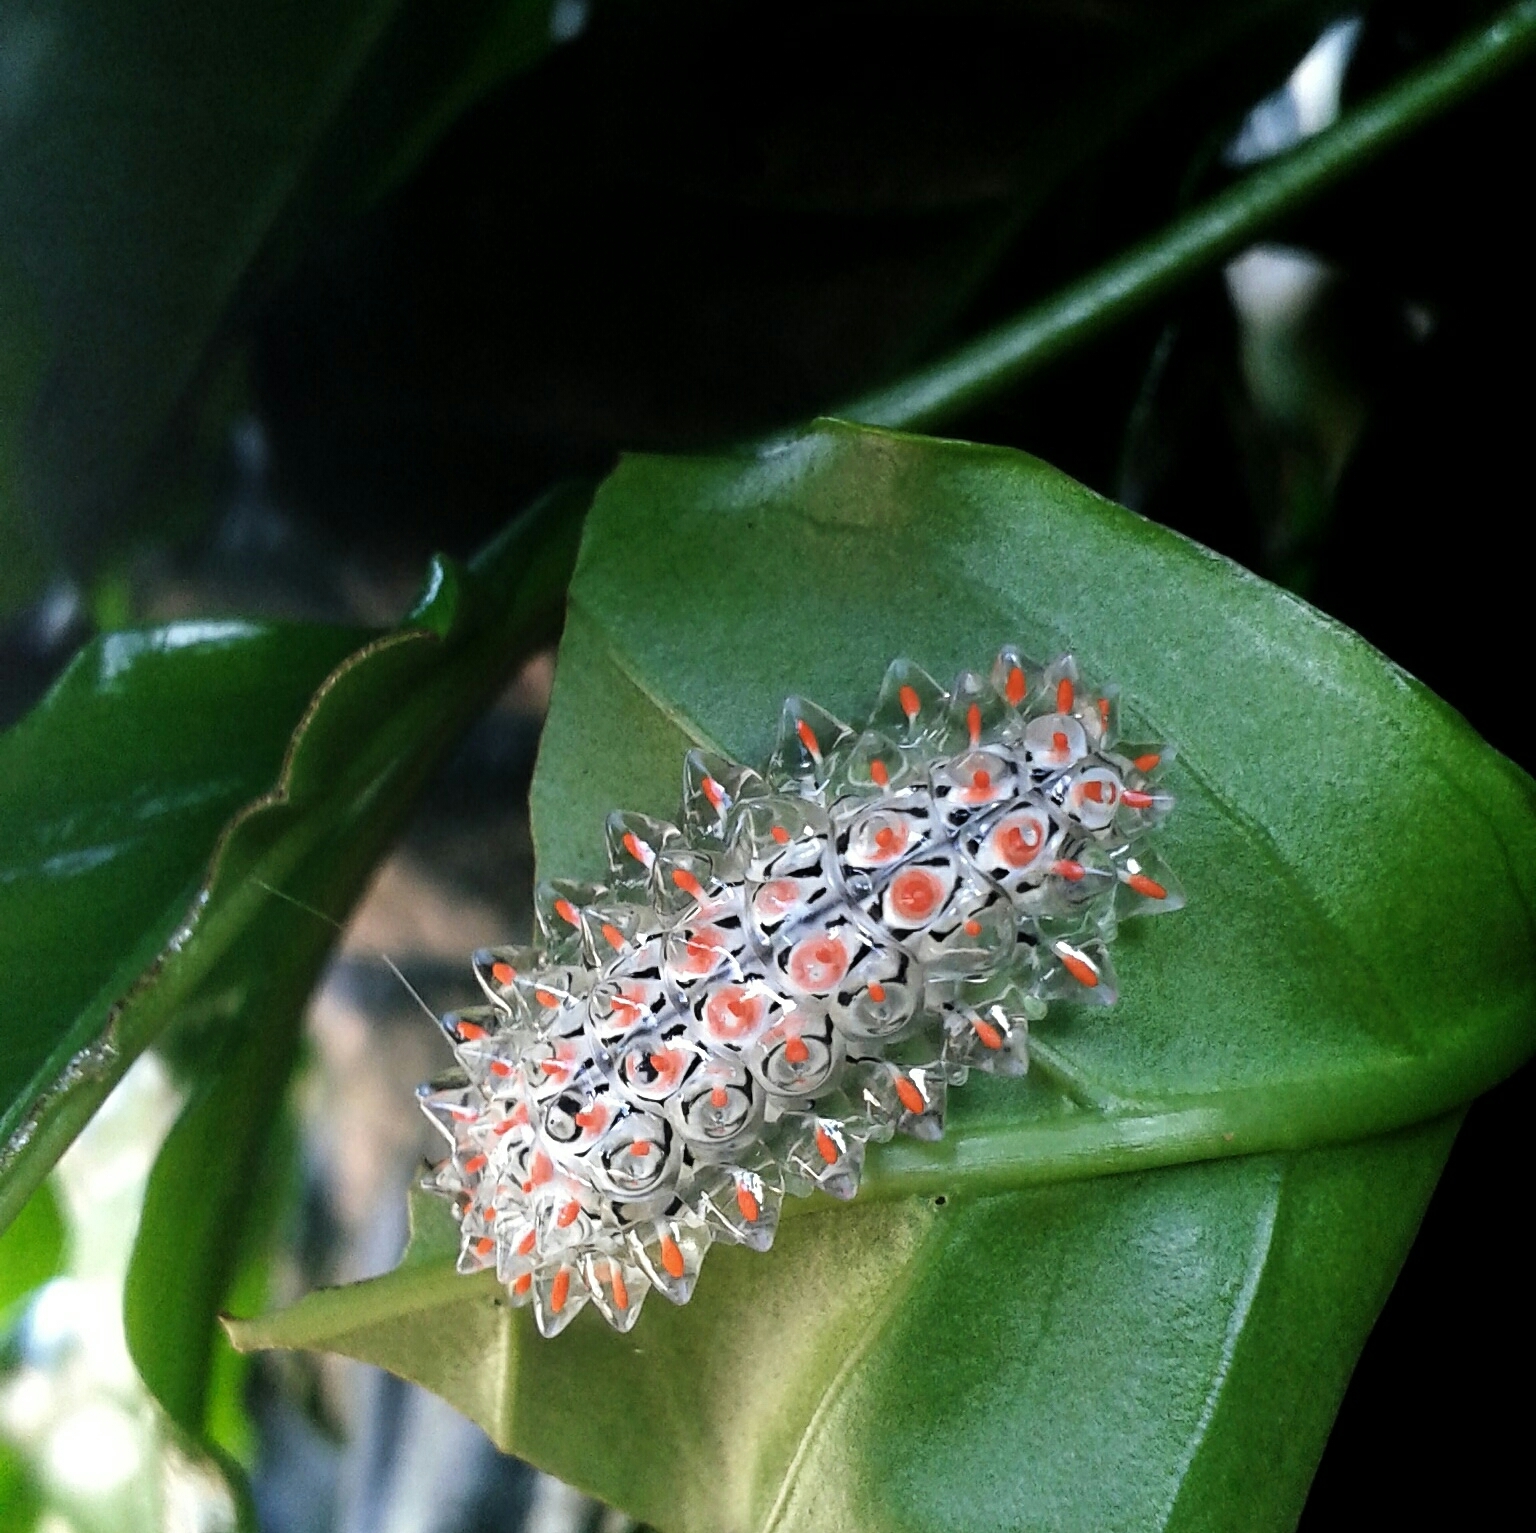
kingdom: Animalia
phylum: Arthropoda
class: Insecta
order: Lepidoptera
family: Dalceridae
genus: Acraga
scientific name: Acraga coa
